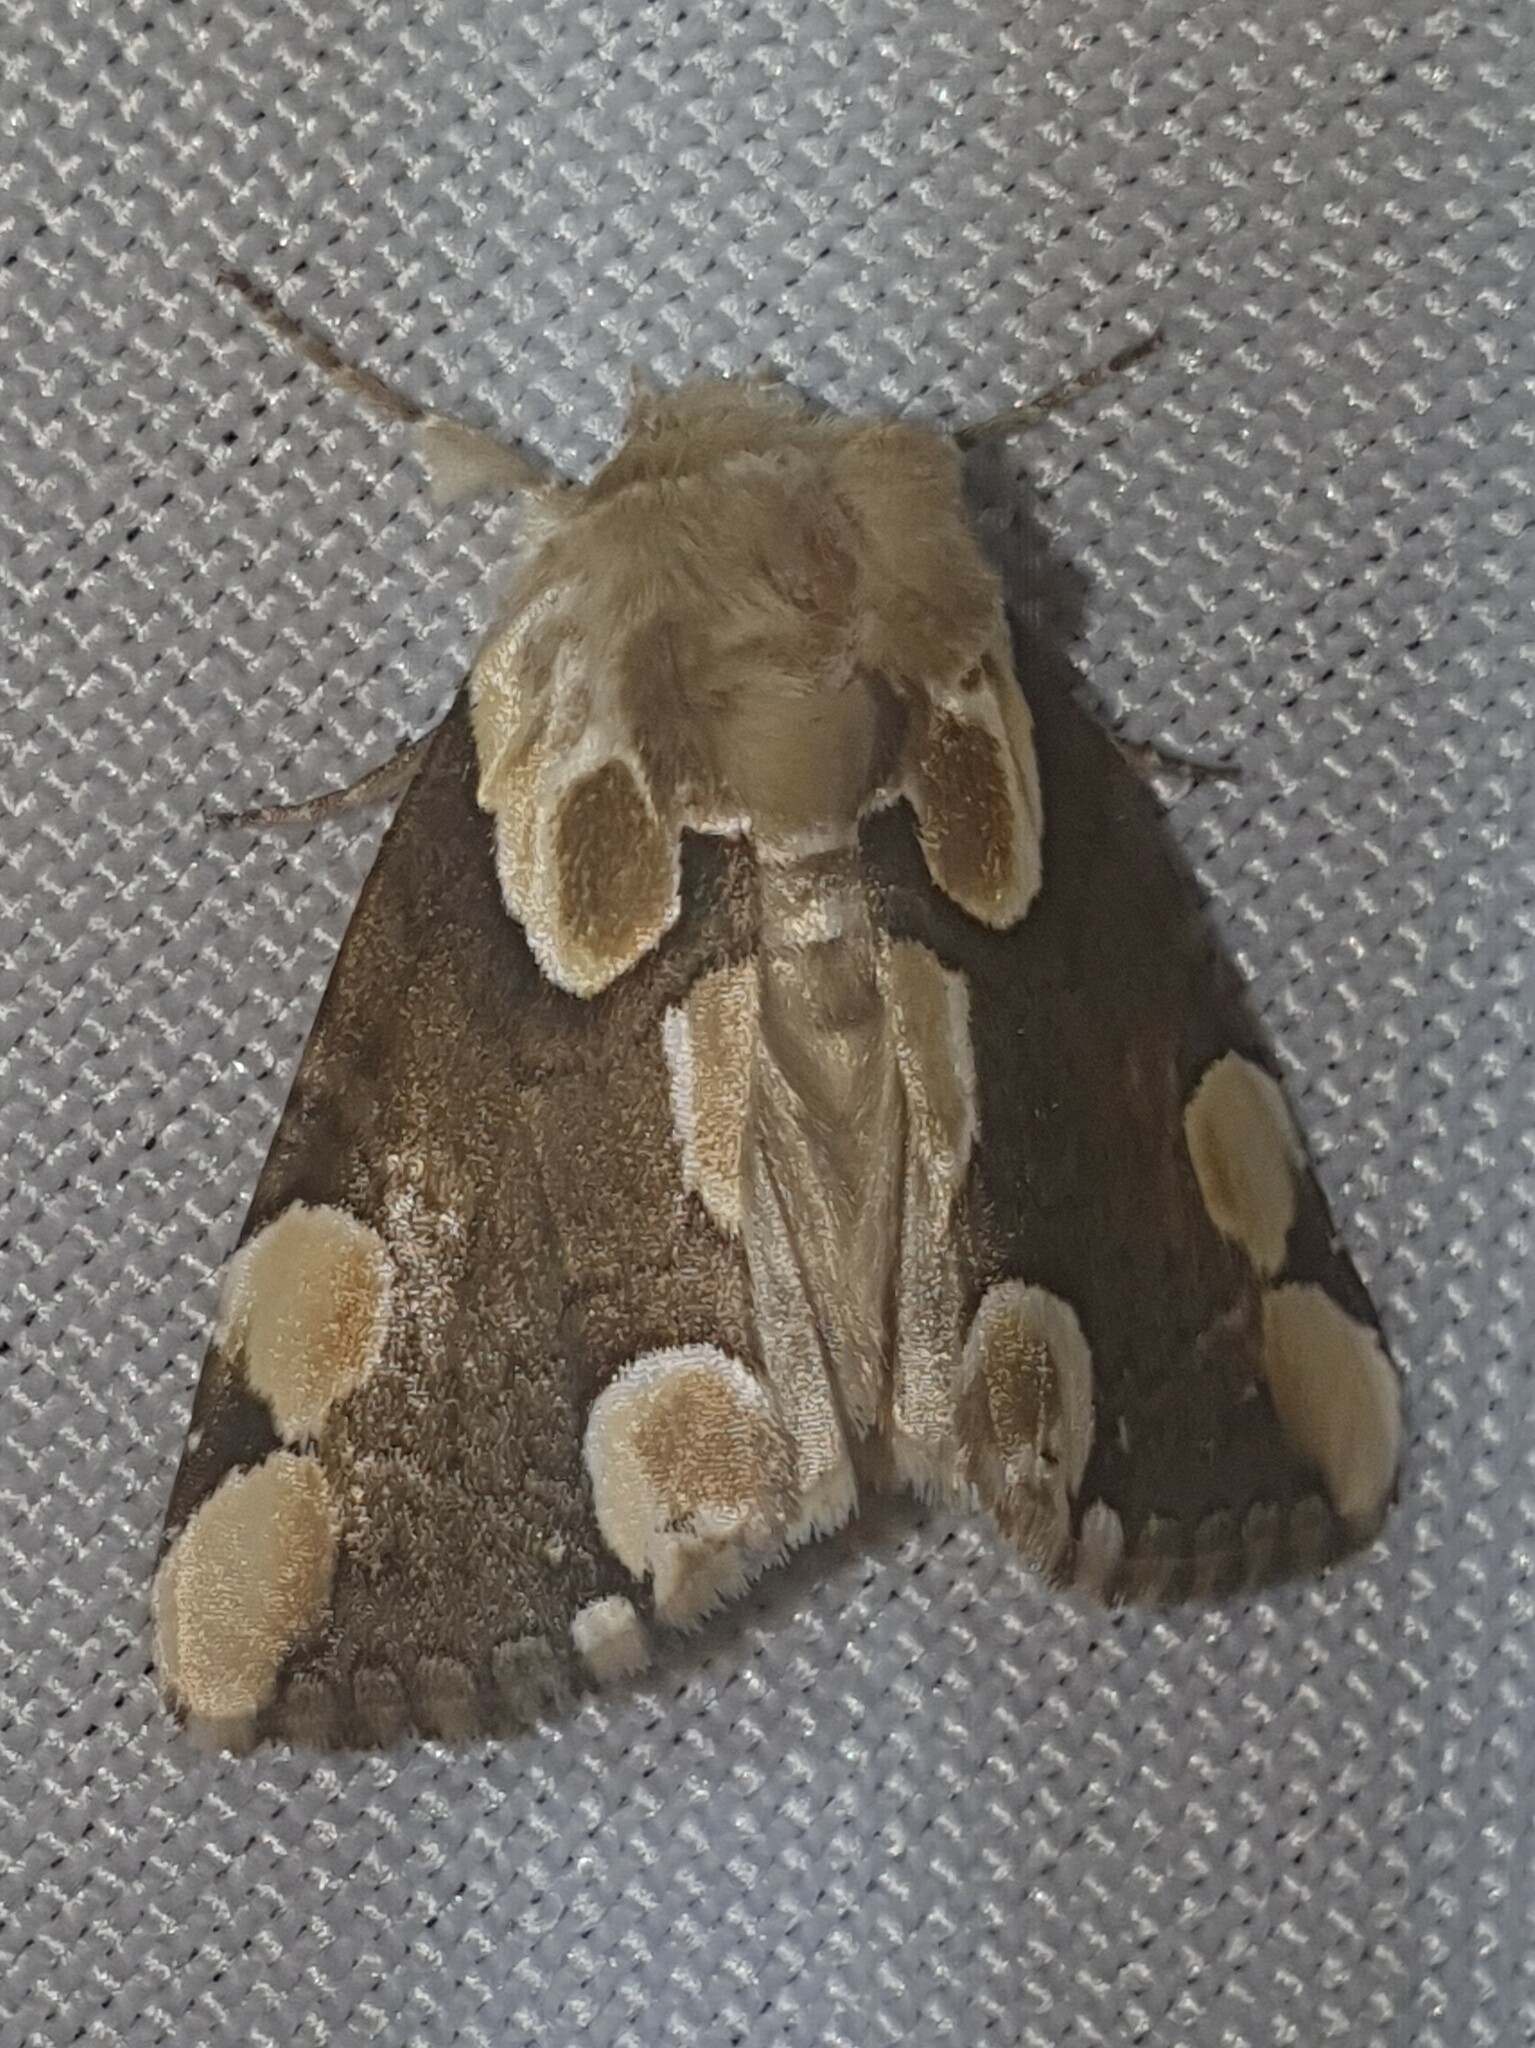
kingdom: Animalia
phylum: Arthropoda
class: Insecta
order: Lepidoptera
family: Drepanidae
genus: Thyatira
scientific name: Thyatira batis
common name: Peach blossom
